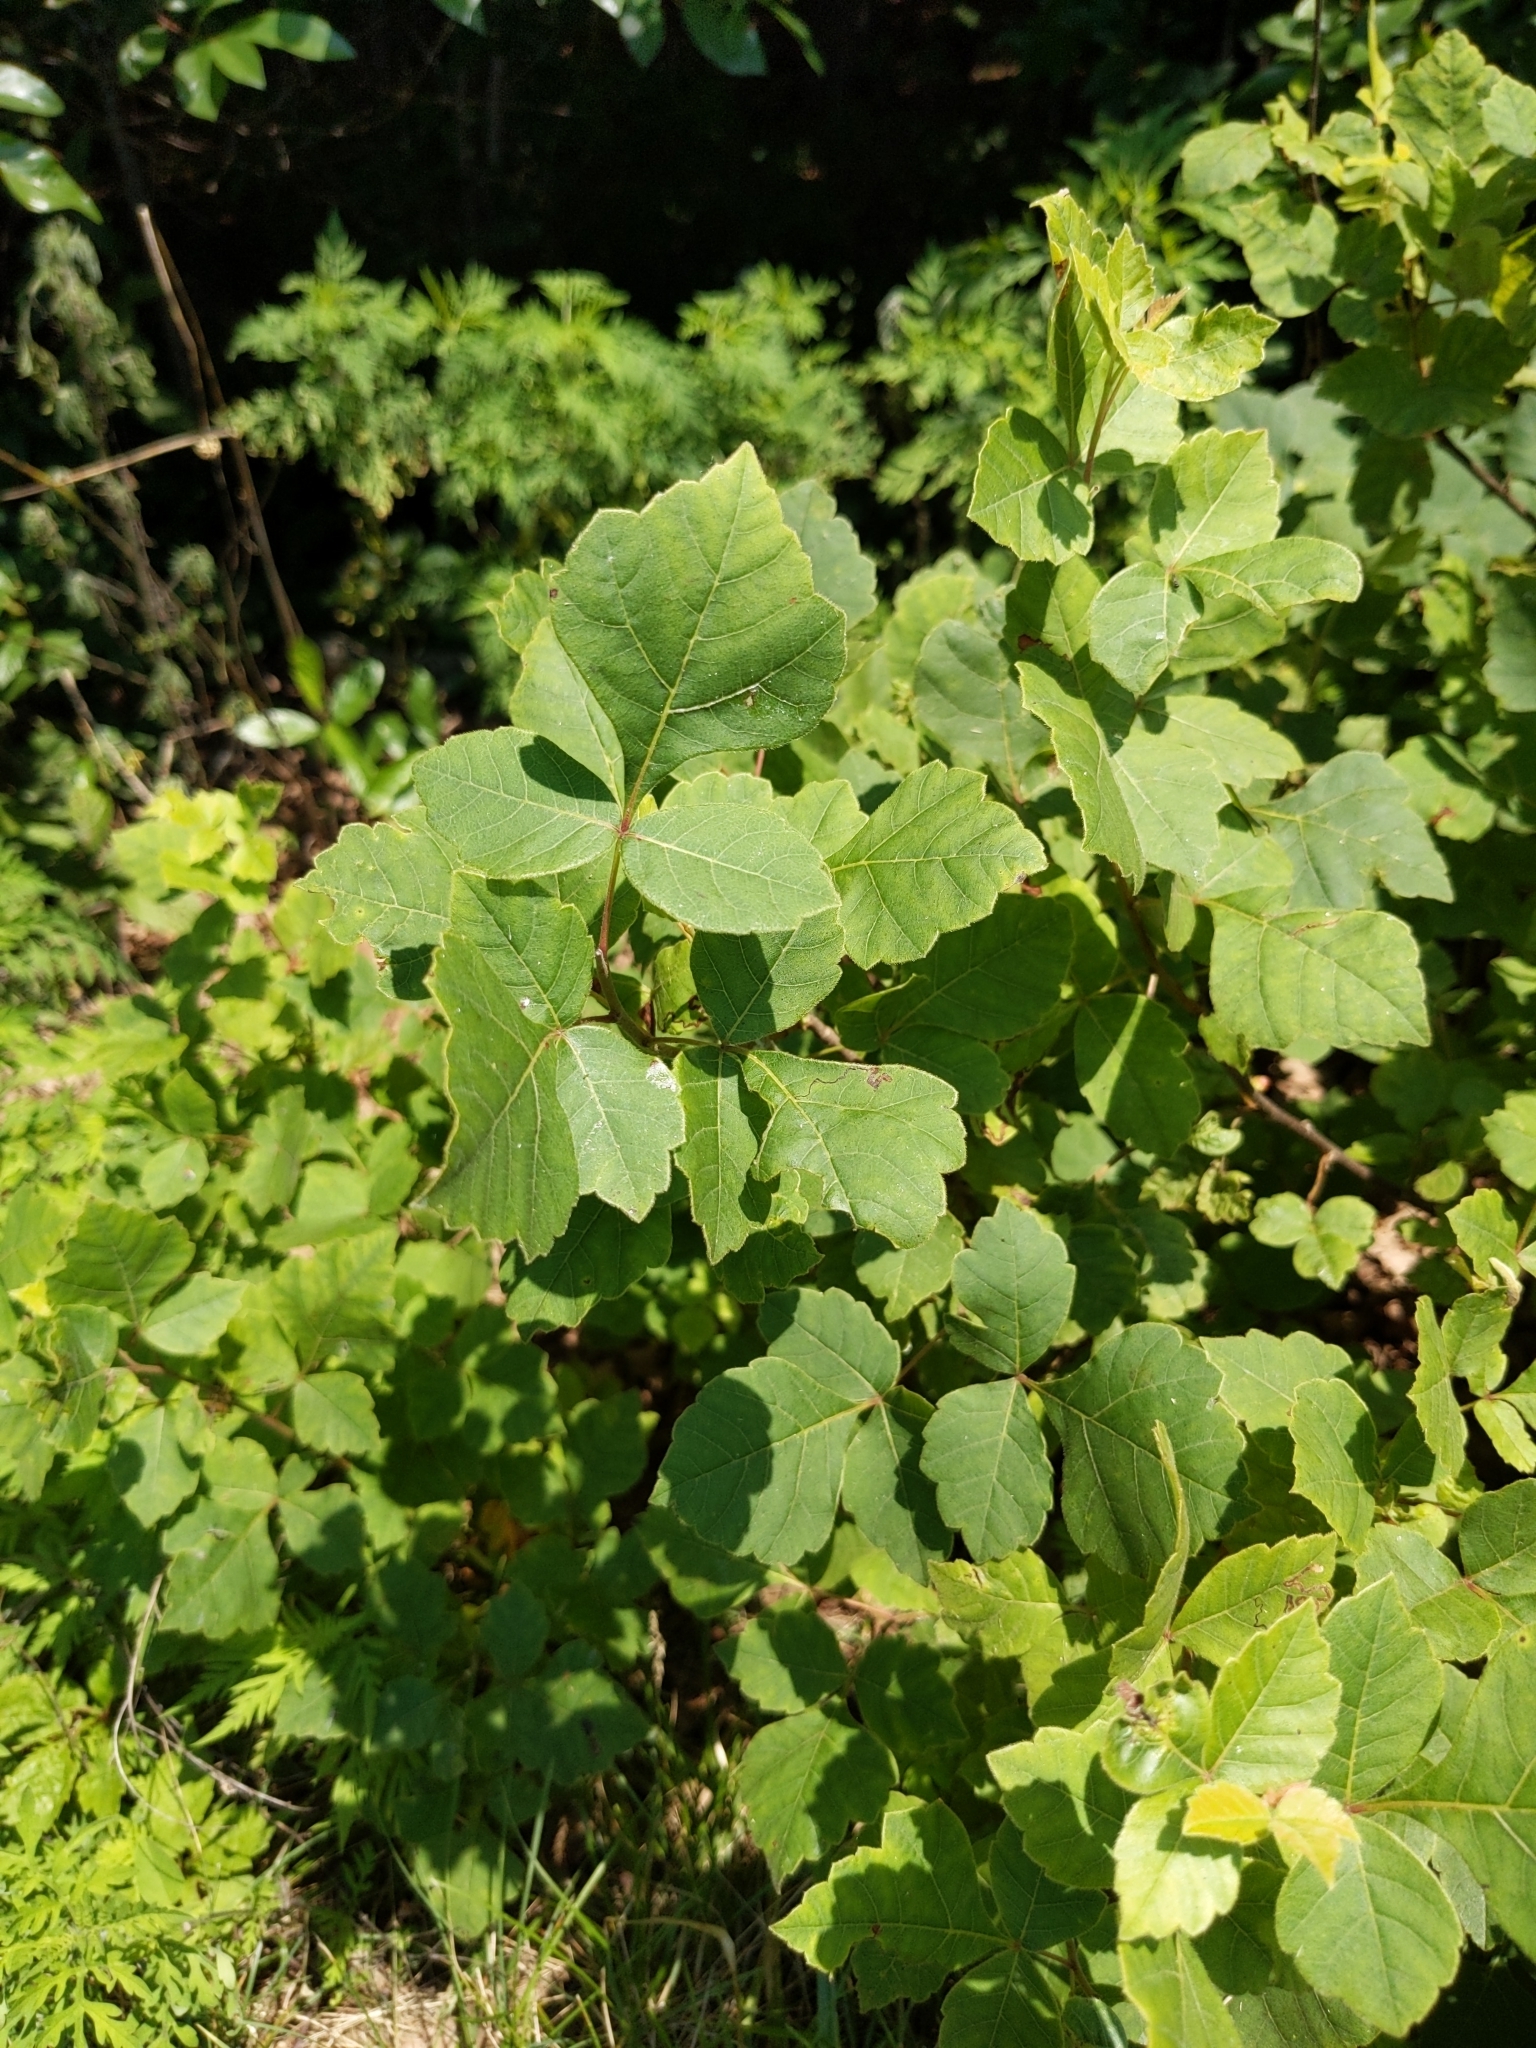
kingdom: Plantae
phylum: Tracheophyta
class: Magnoliopsida
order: Sapindales
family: Anacardiaceae
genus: Rhus
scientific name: Rhus aromatica
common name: Aromatic sumac
